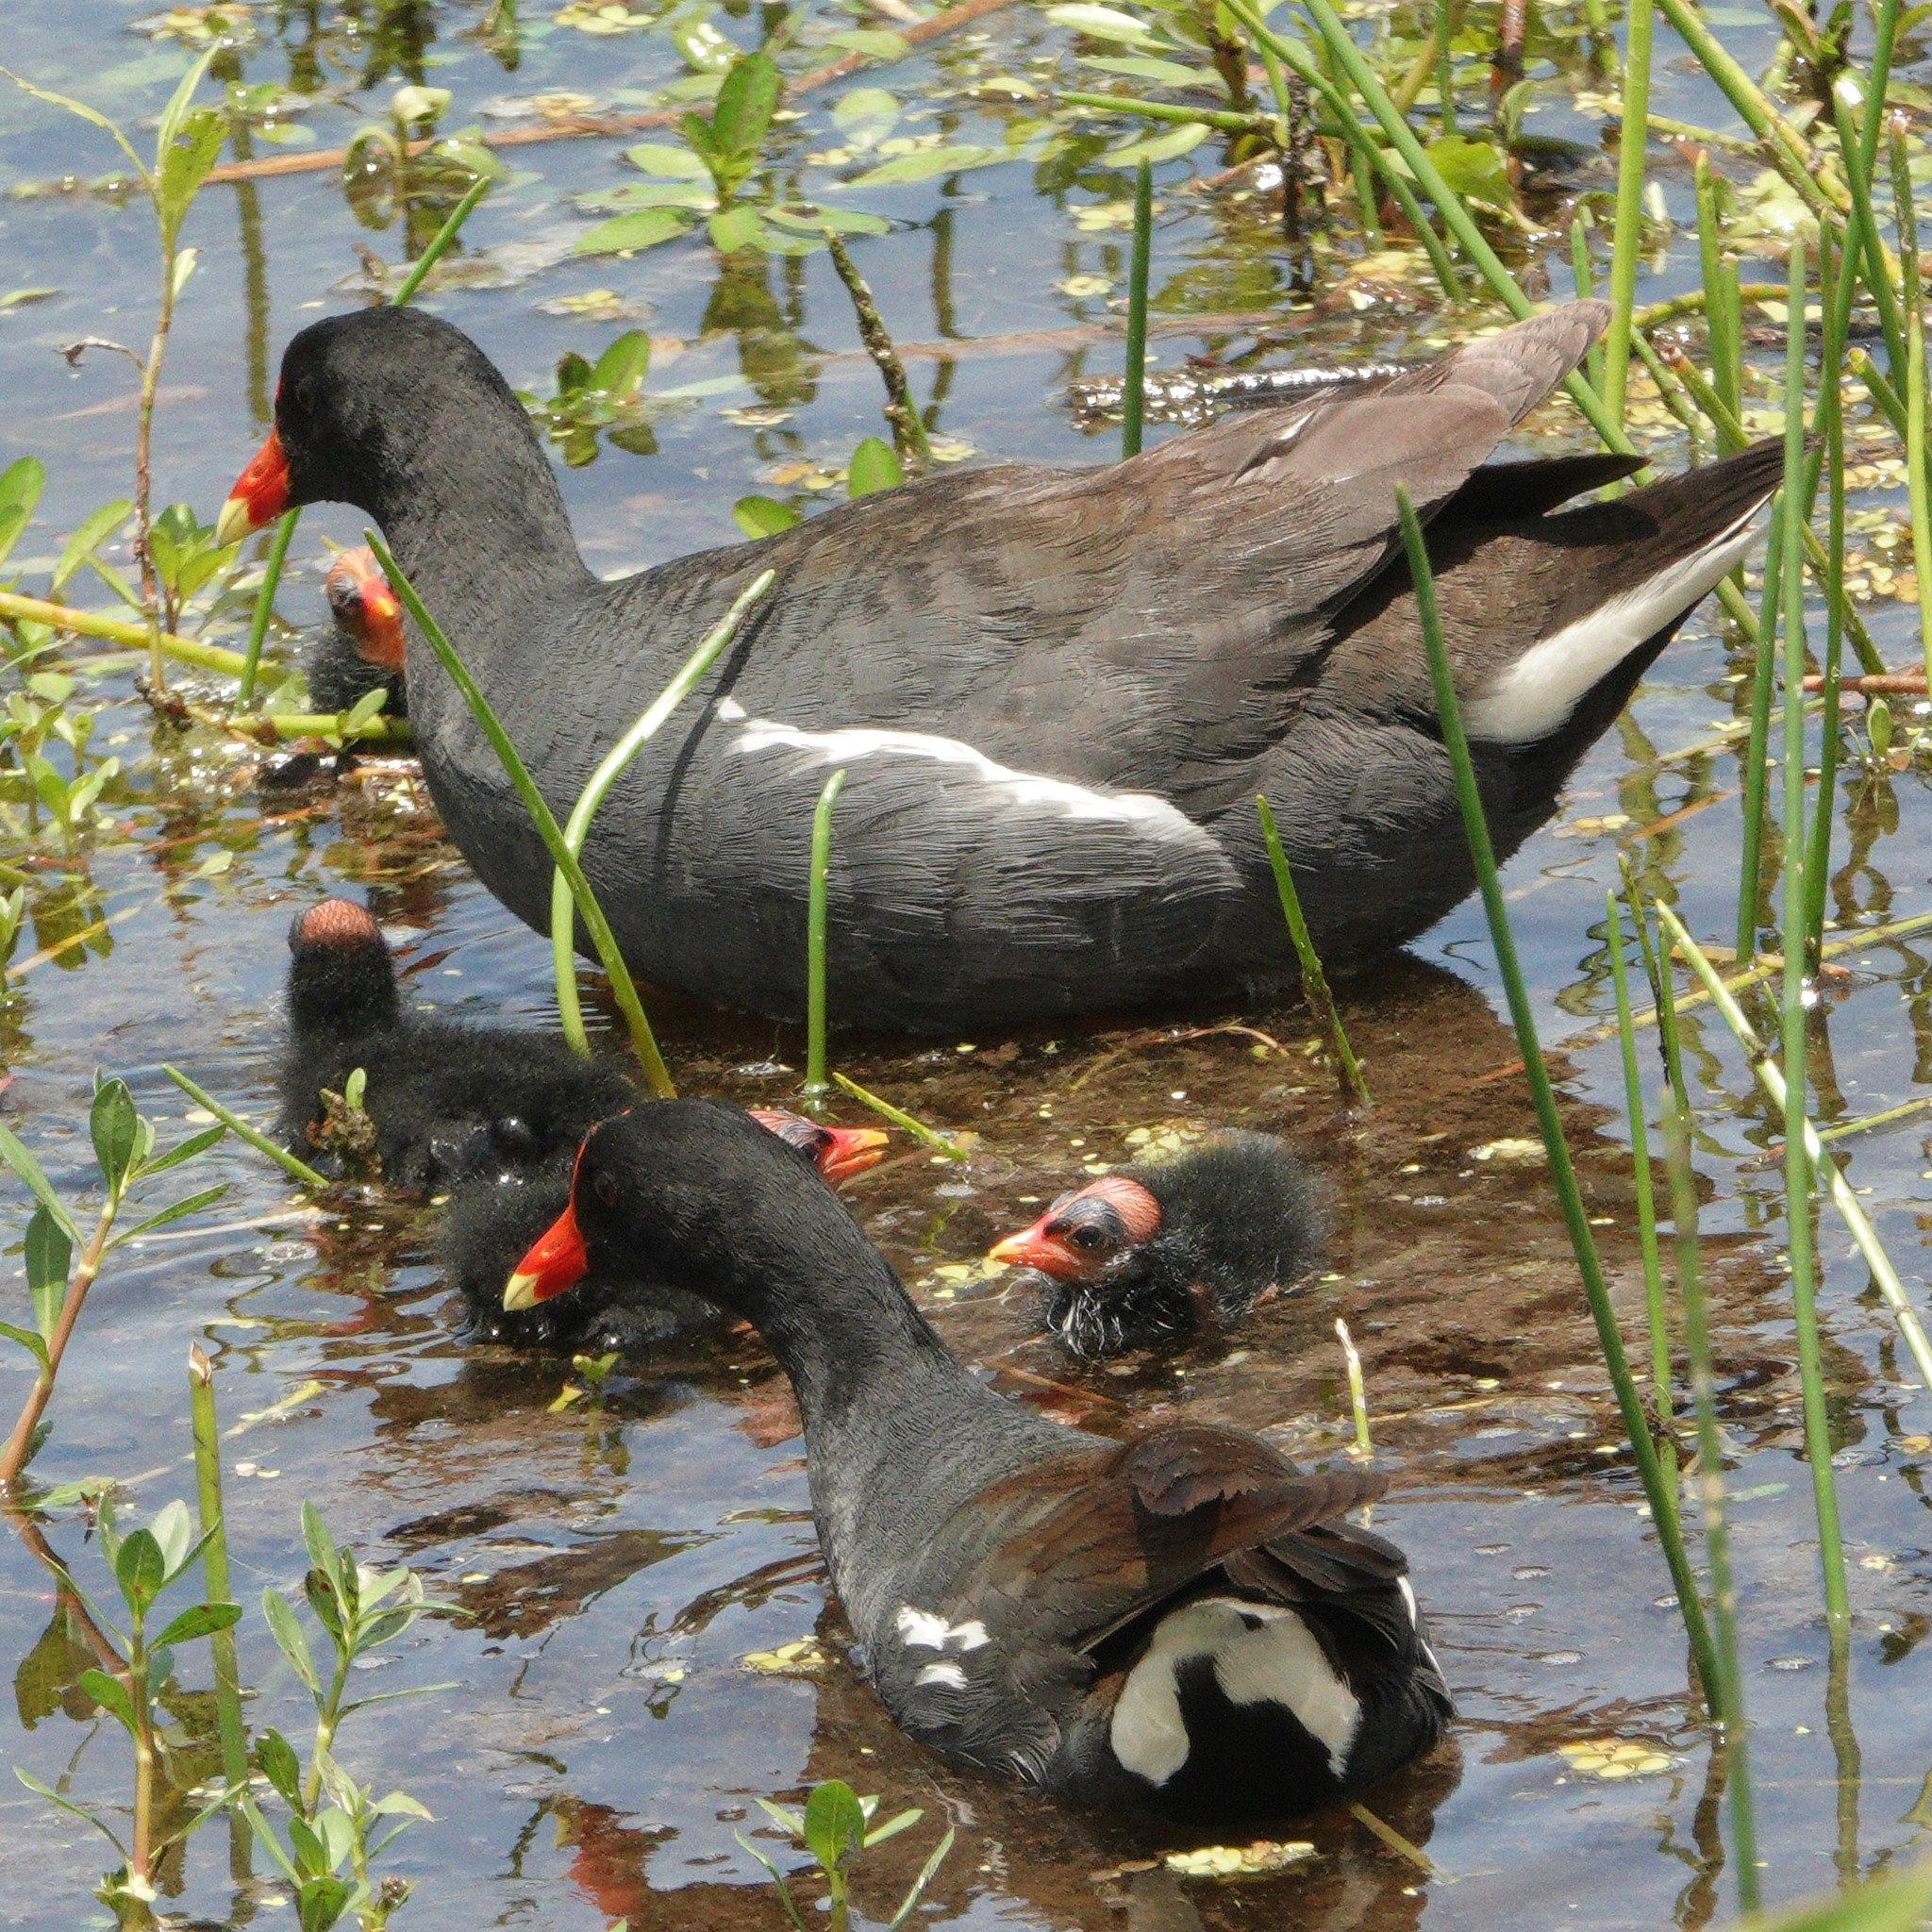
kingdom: Animalia
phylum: Chordata
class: Aves
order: Gruiformes
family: Rallidae
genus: Gallinula
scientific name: Gallinula chloropus
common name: Common moorhen
